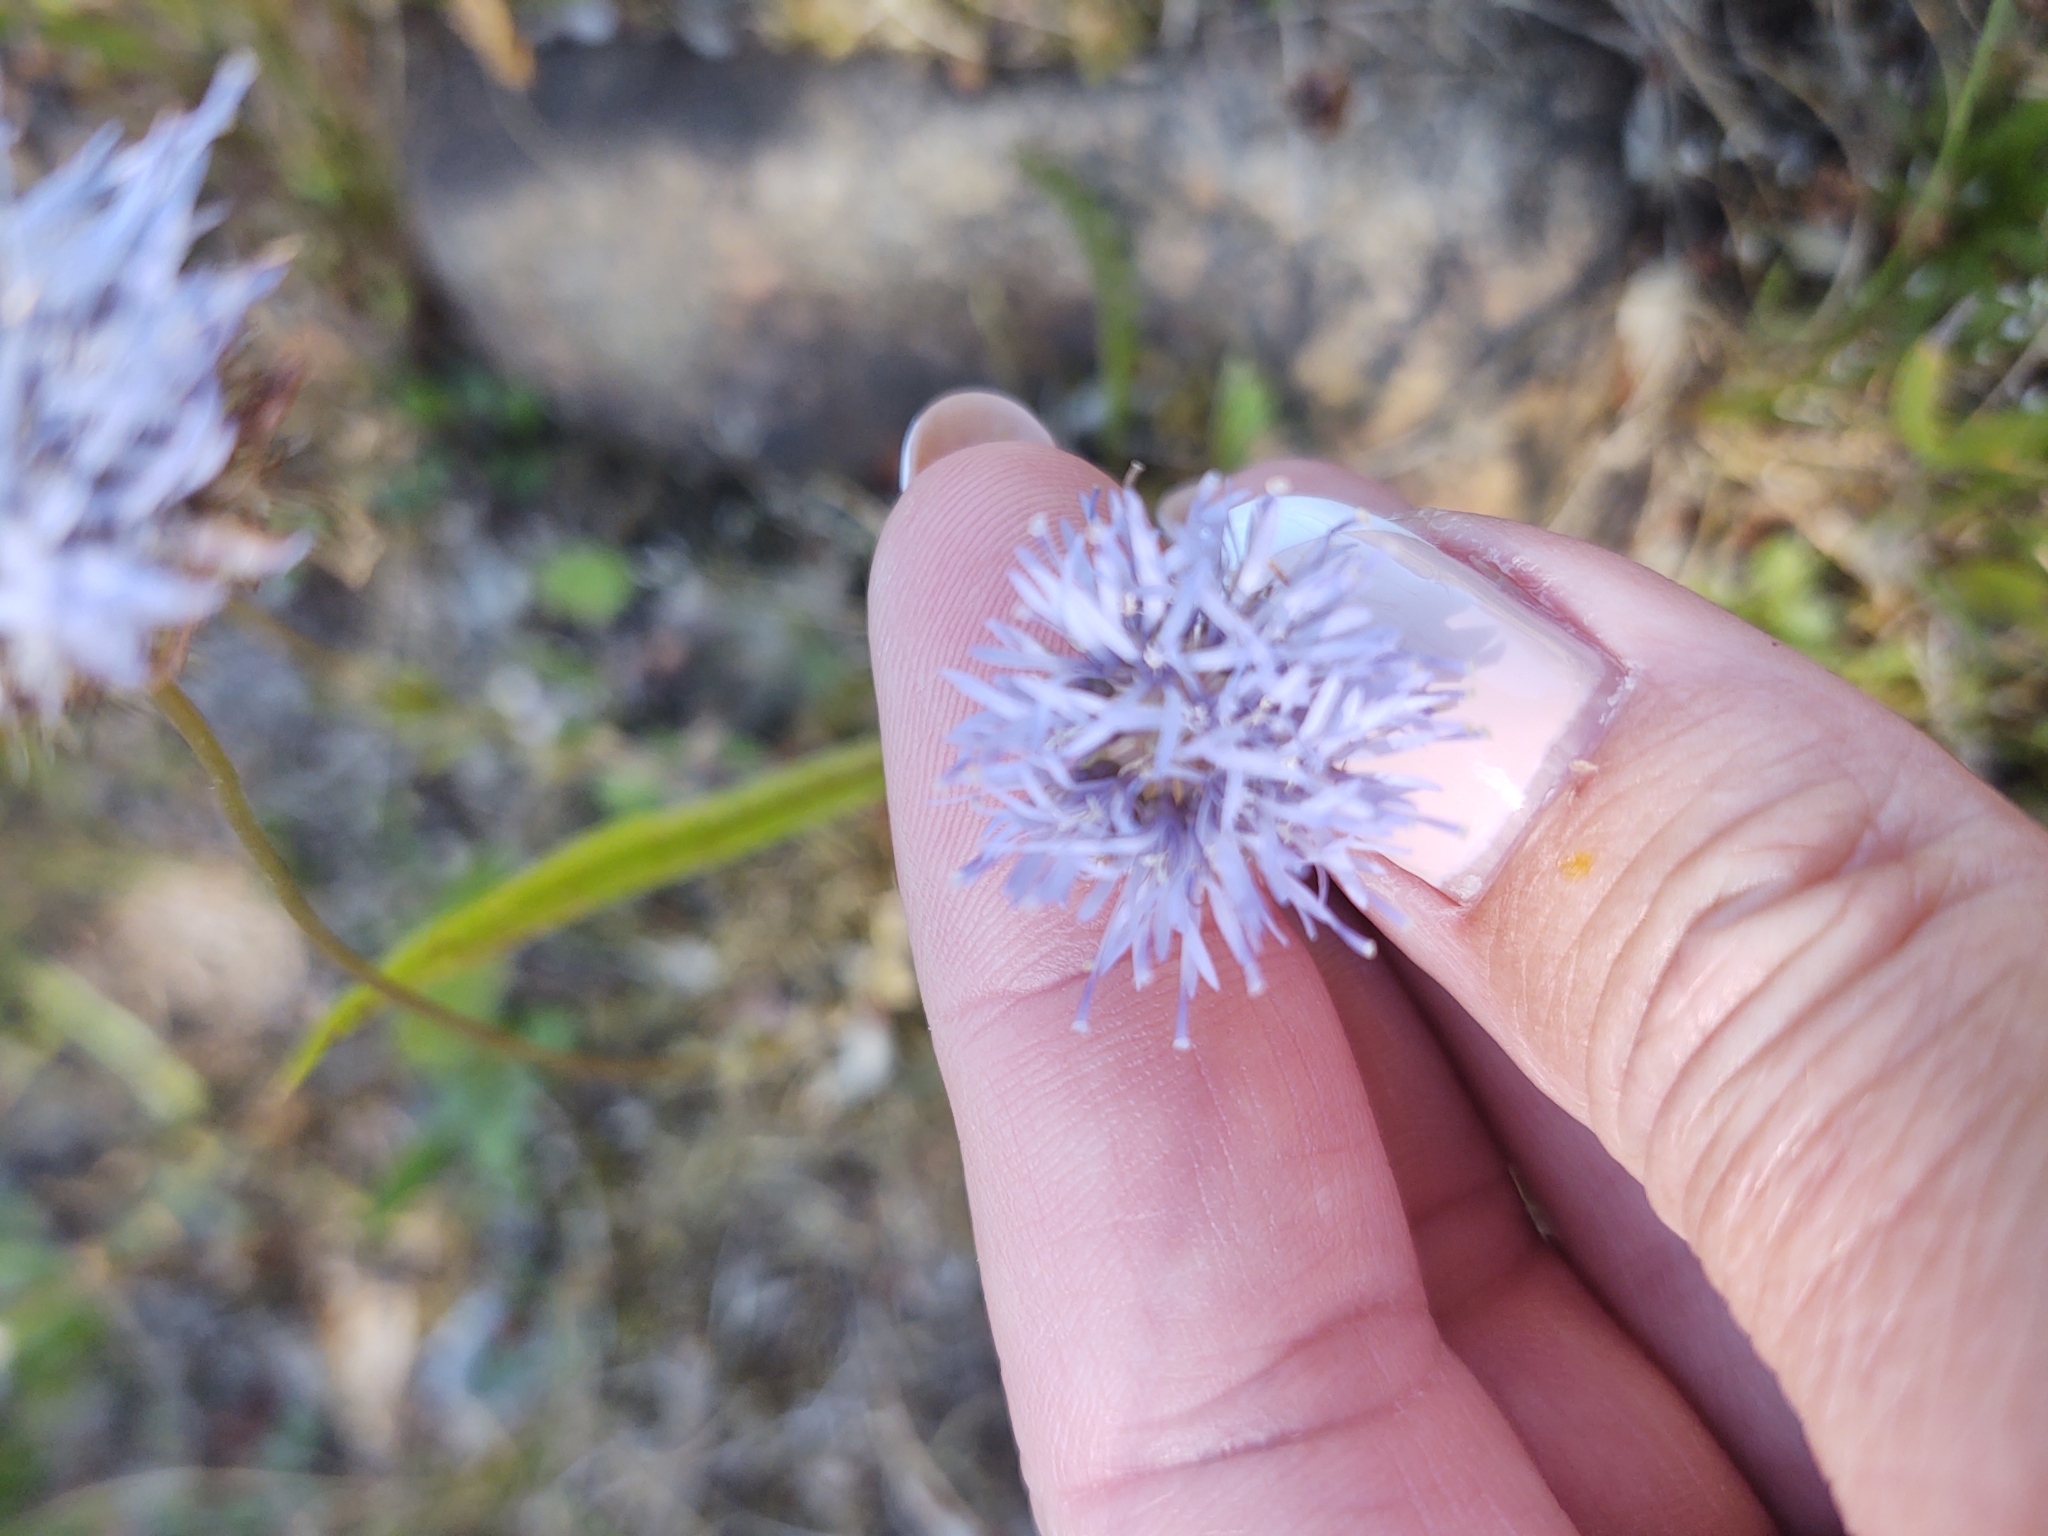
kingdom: Plantae
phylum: Tracheophyta
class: Magnoliopsida
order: Asterales
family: Campanulaceae
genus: Jasione
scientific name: Jasione montana
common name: Sheep's-bit
